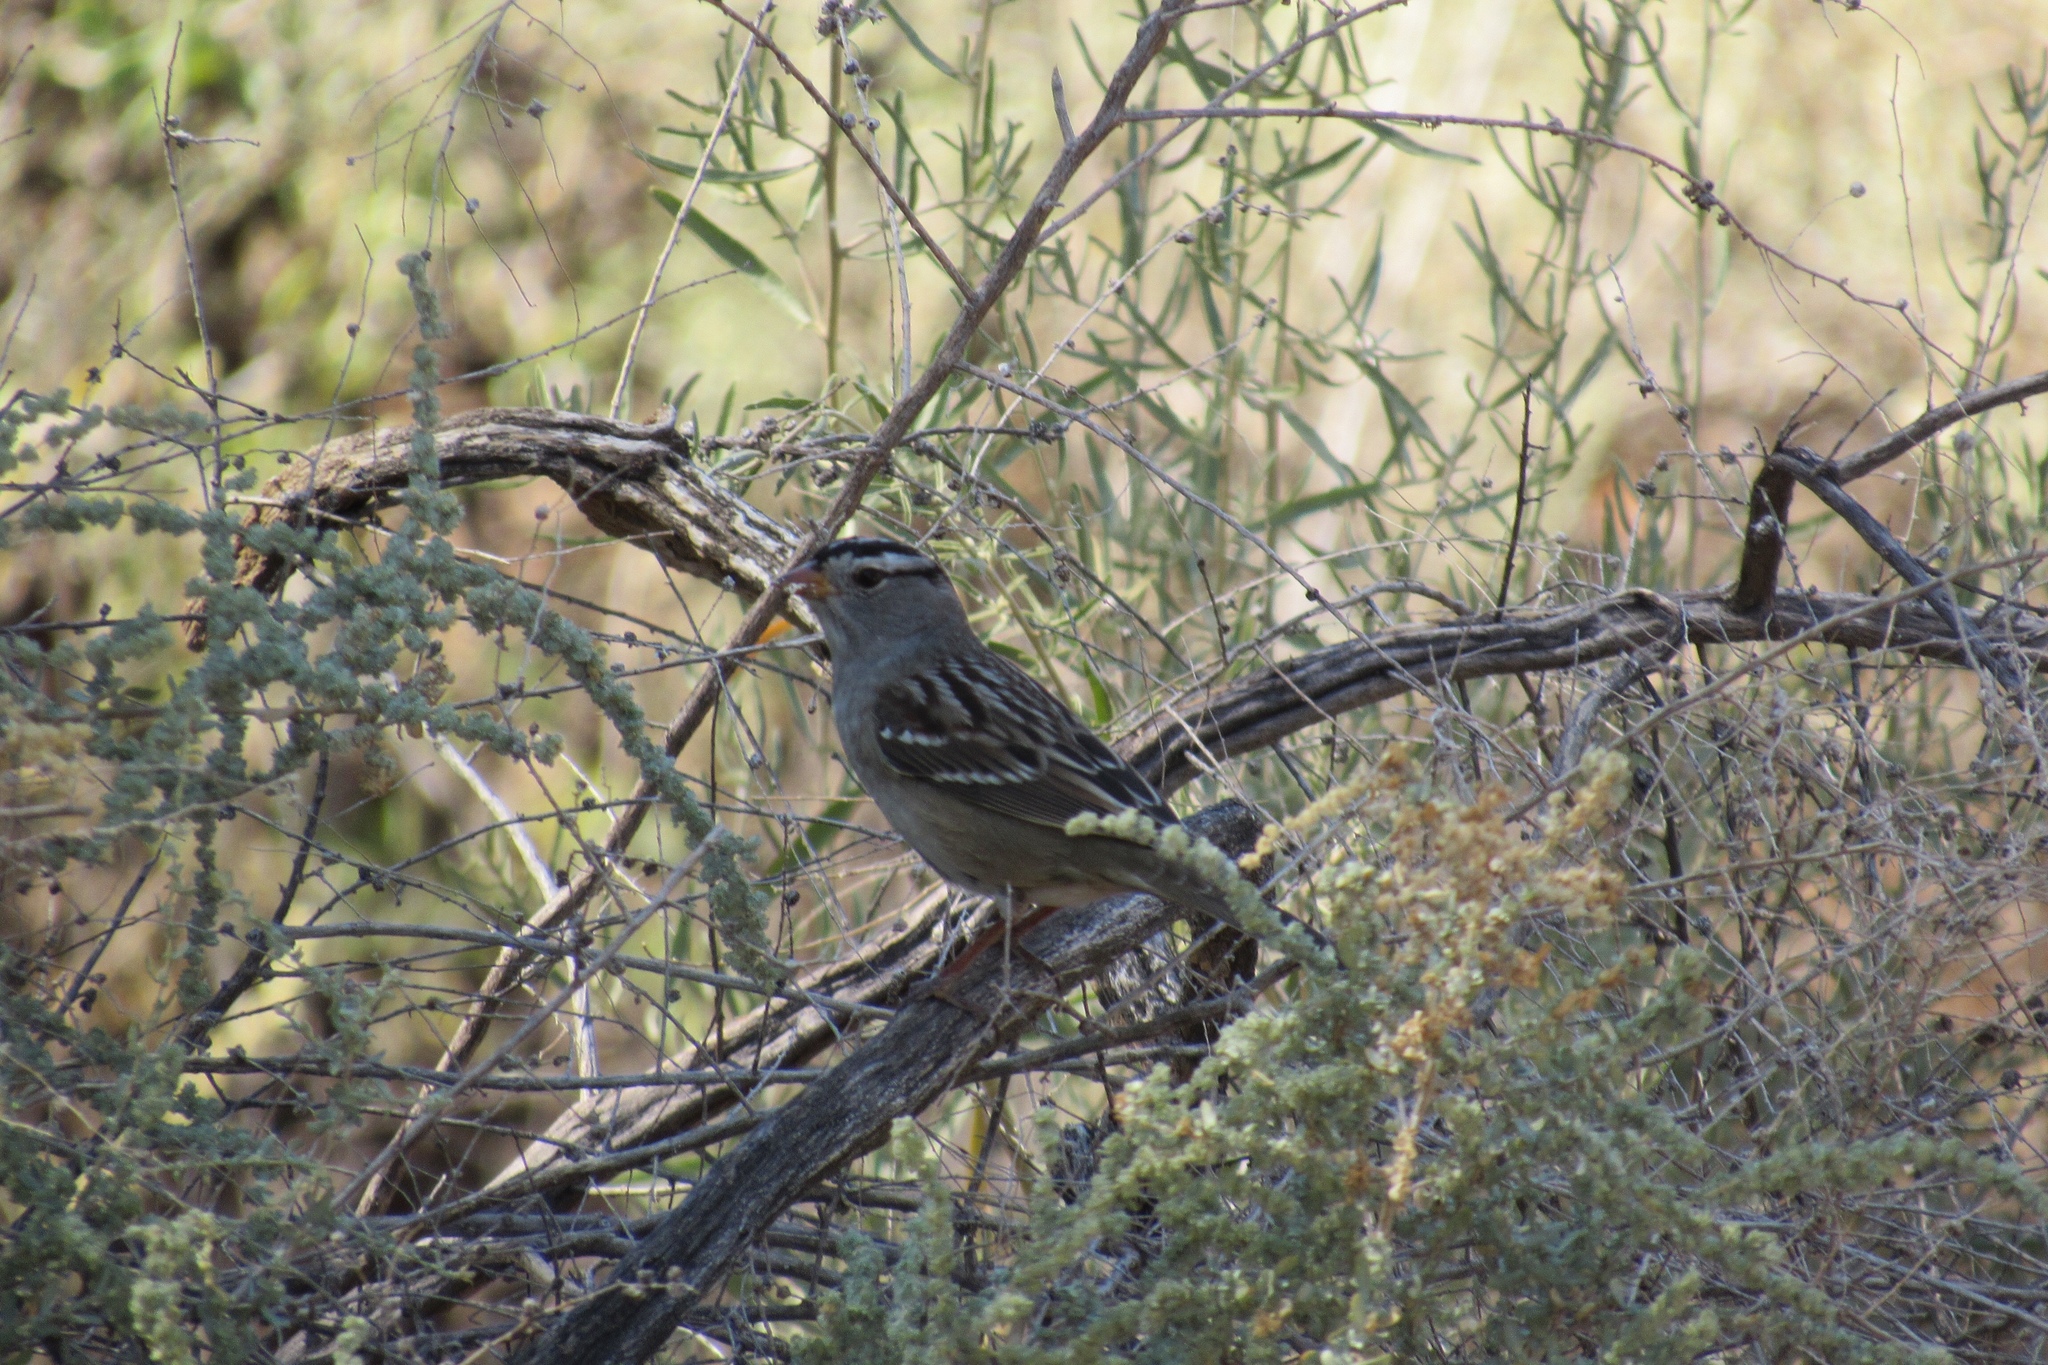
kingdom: Animalia
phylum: Chordata
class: Aves
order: Passeriformes
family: Passerellidae
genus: Zonotrichia
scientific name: Zonotrichia leucophrys
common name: White-crowned sparrow
